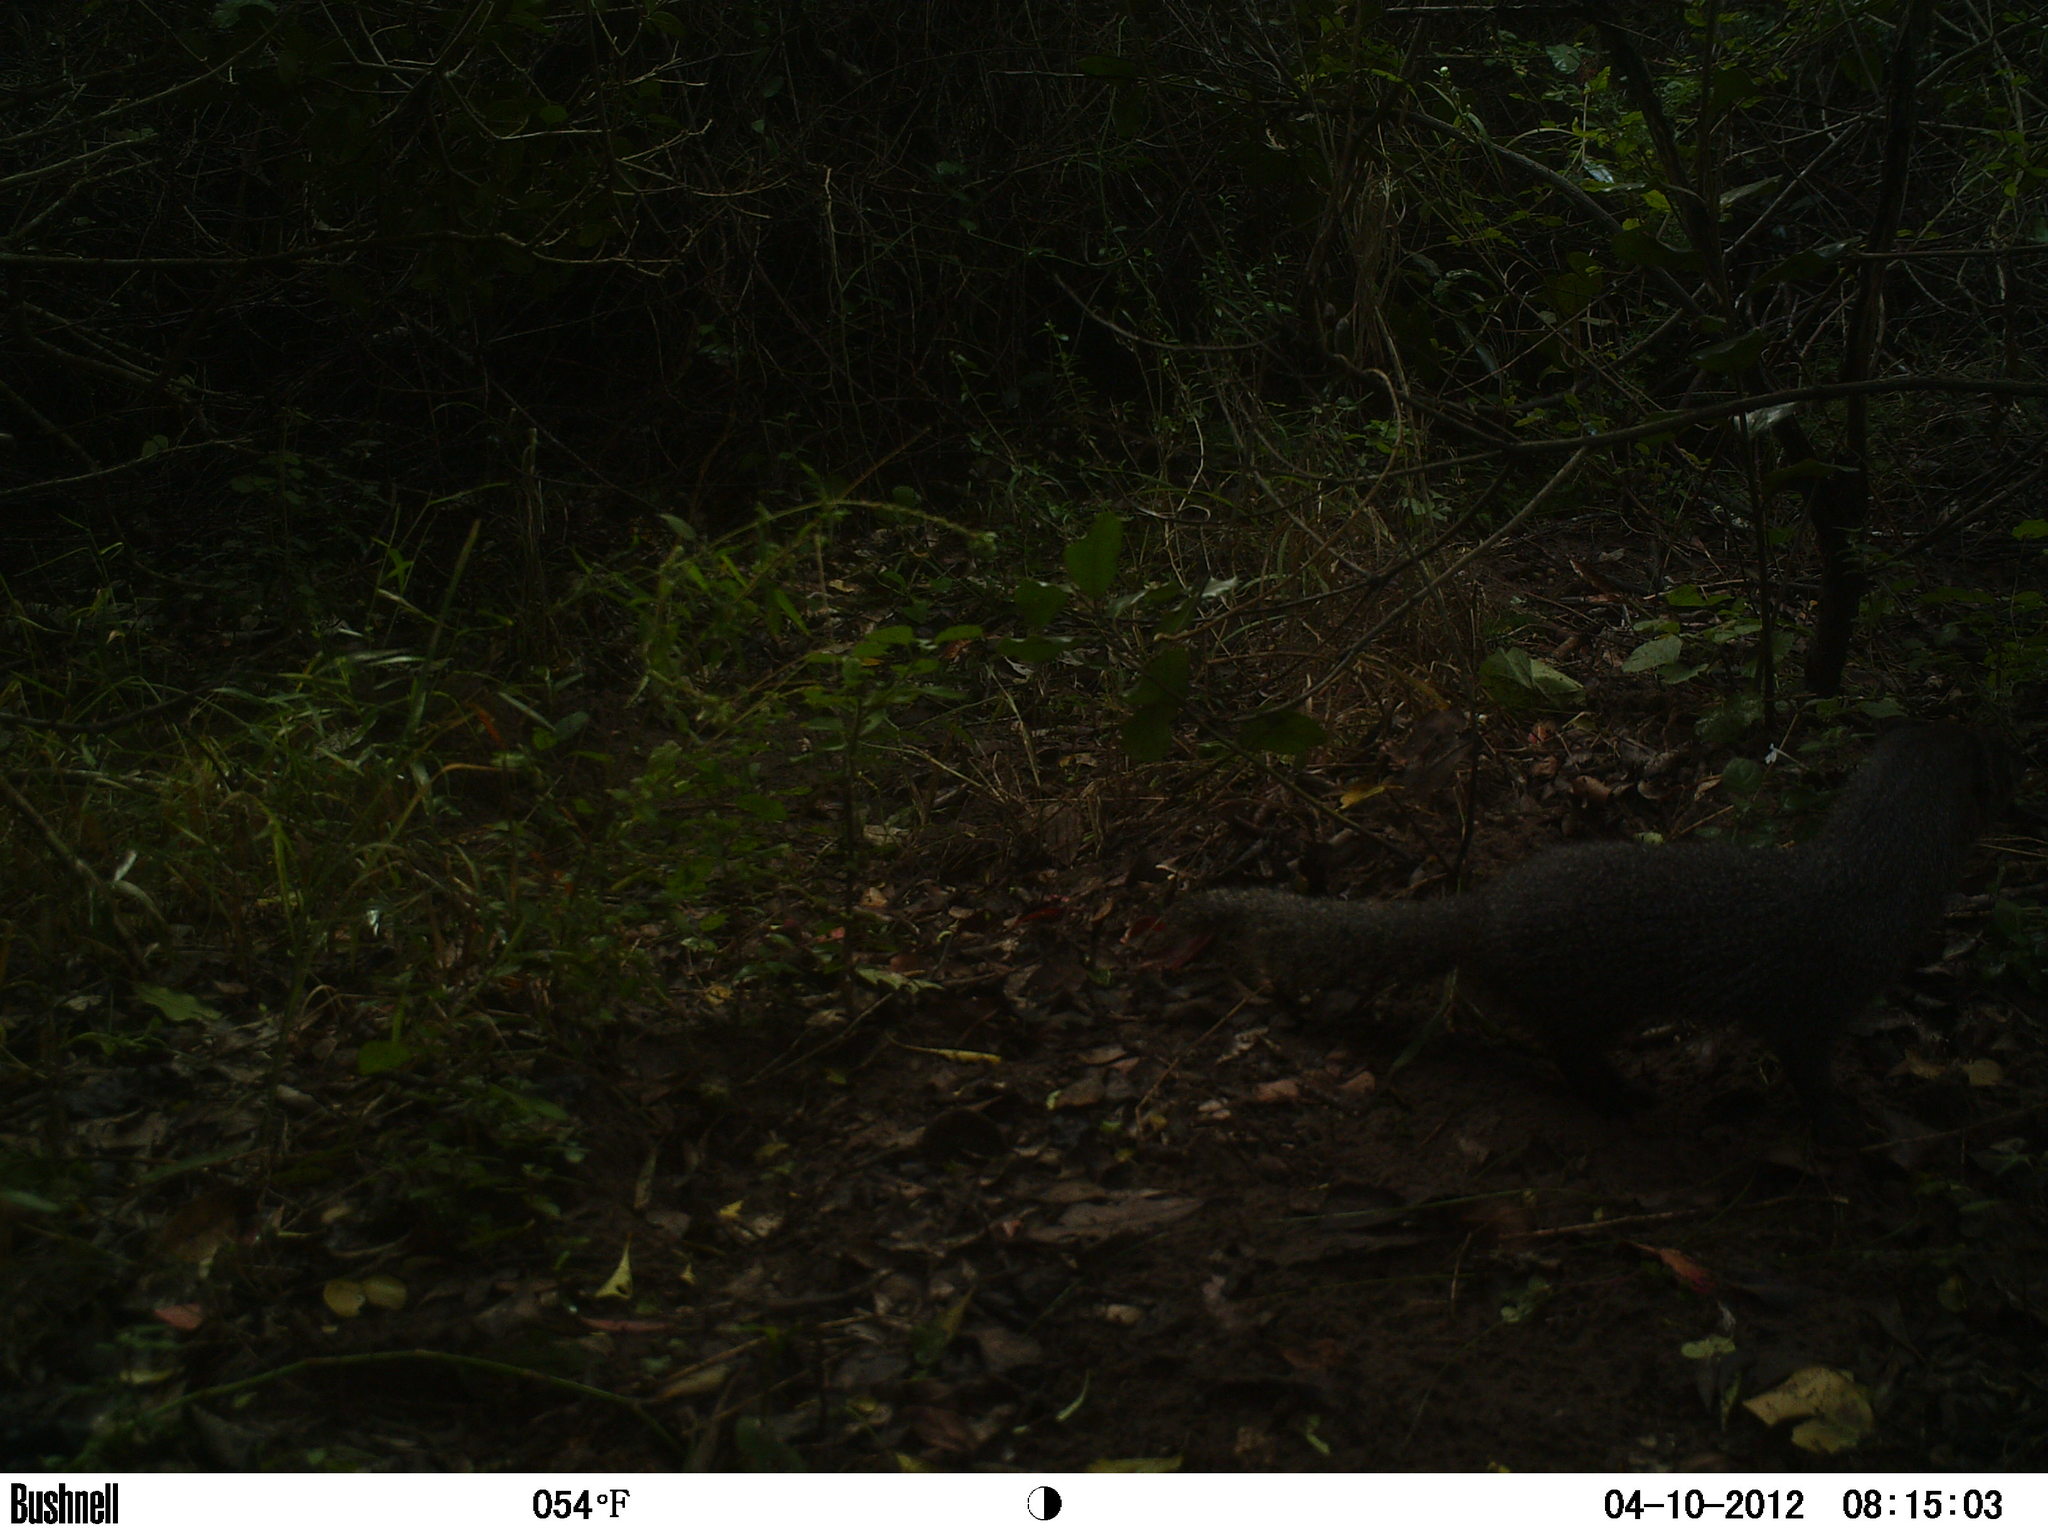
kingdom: Animalia
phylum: Chordata
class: Mammalia
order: Carnivora
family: Herpestidae
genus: Galerella
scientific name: Galerella pulverulenta
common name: Cape gray mongoose
